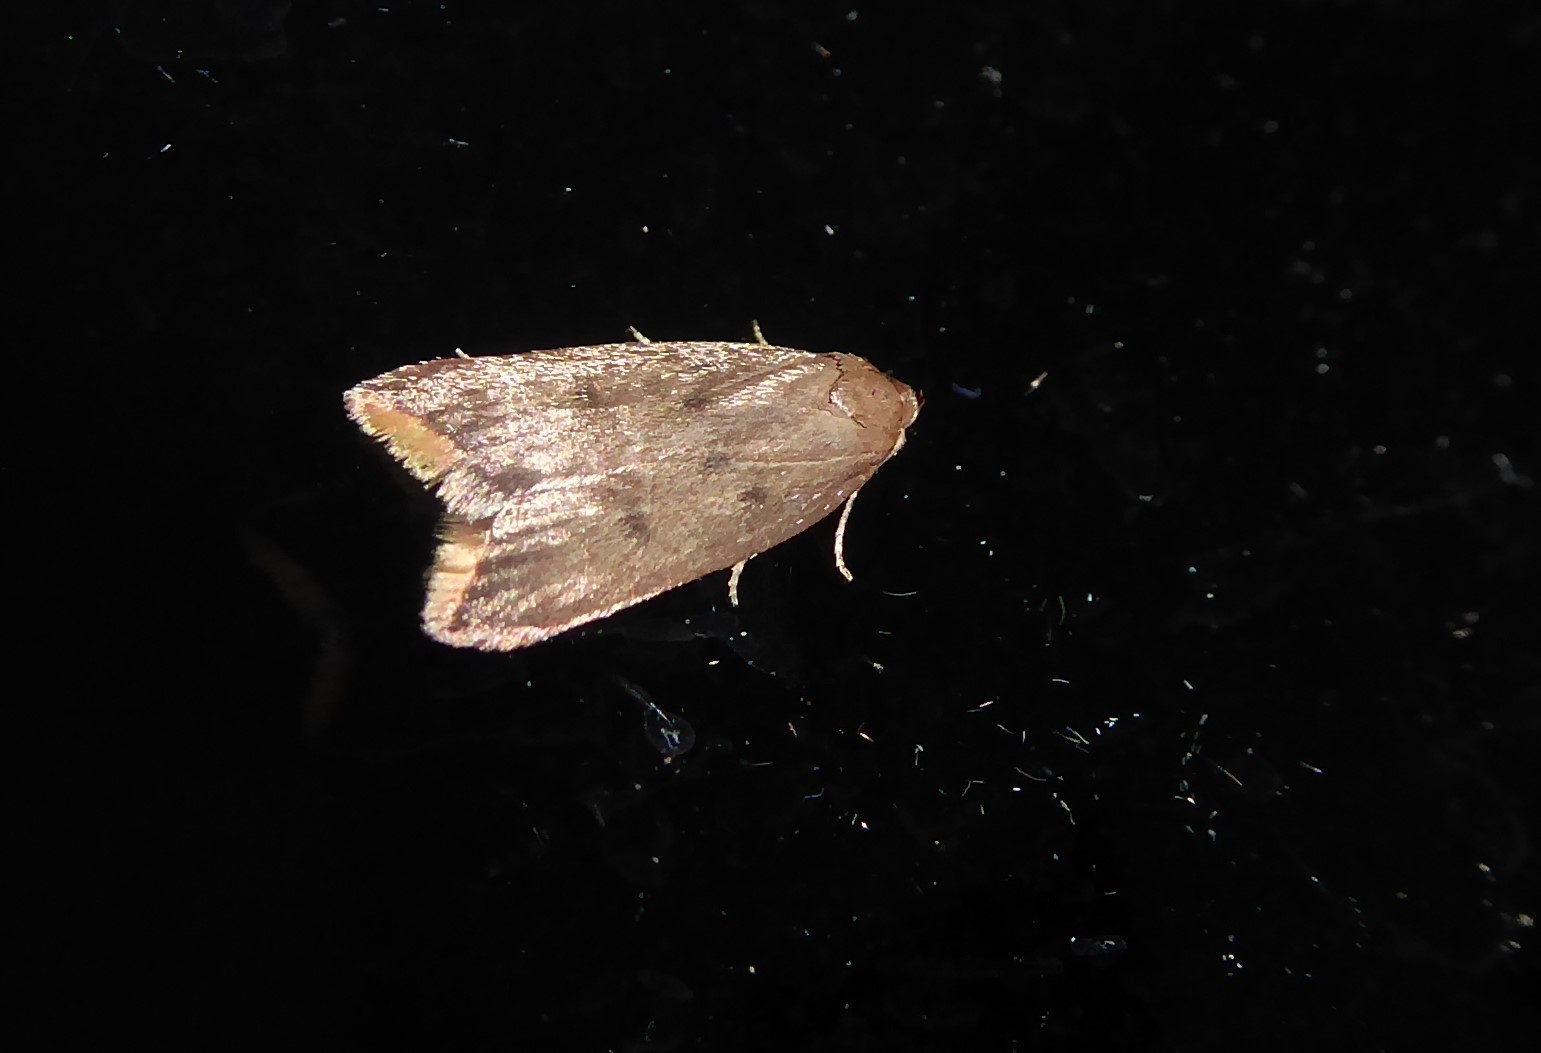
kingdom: Animalia
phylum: Arthropoda
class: Insecta
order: Lepidoptera
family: Oecophoridae
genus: Tachystola
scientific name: Tachystola acroxantha
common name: Ruddy streak
